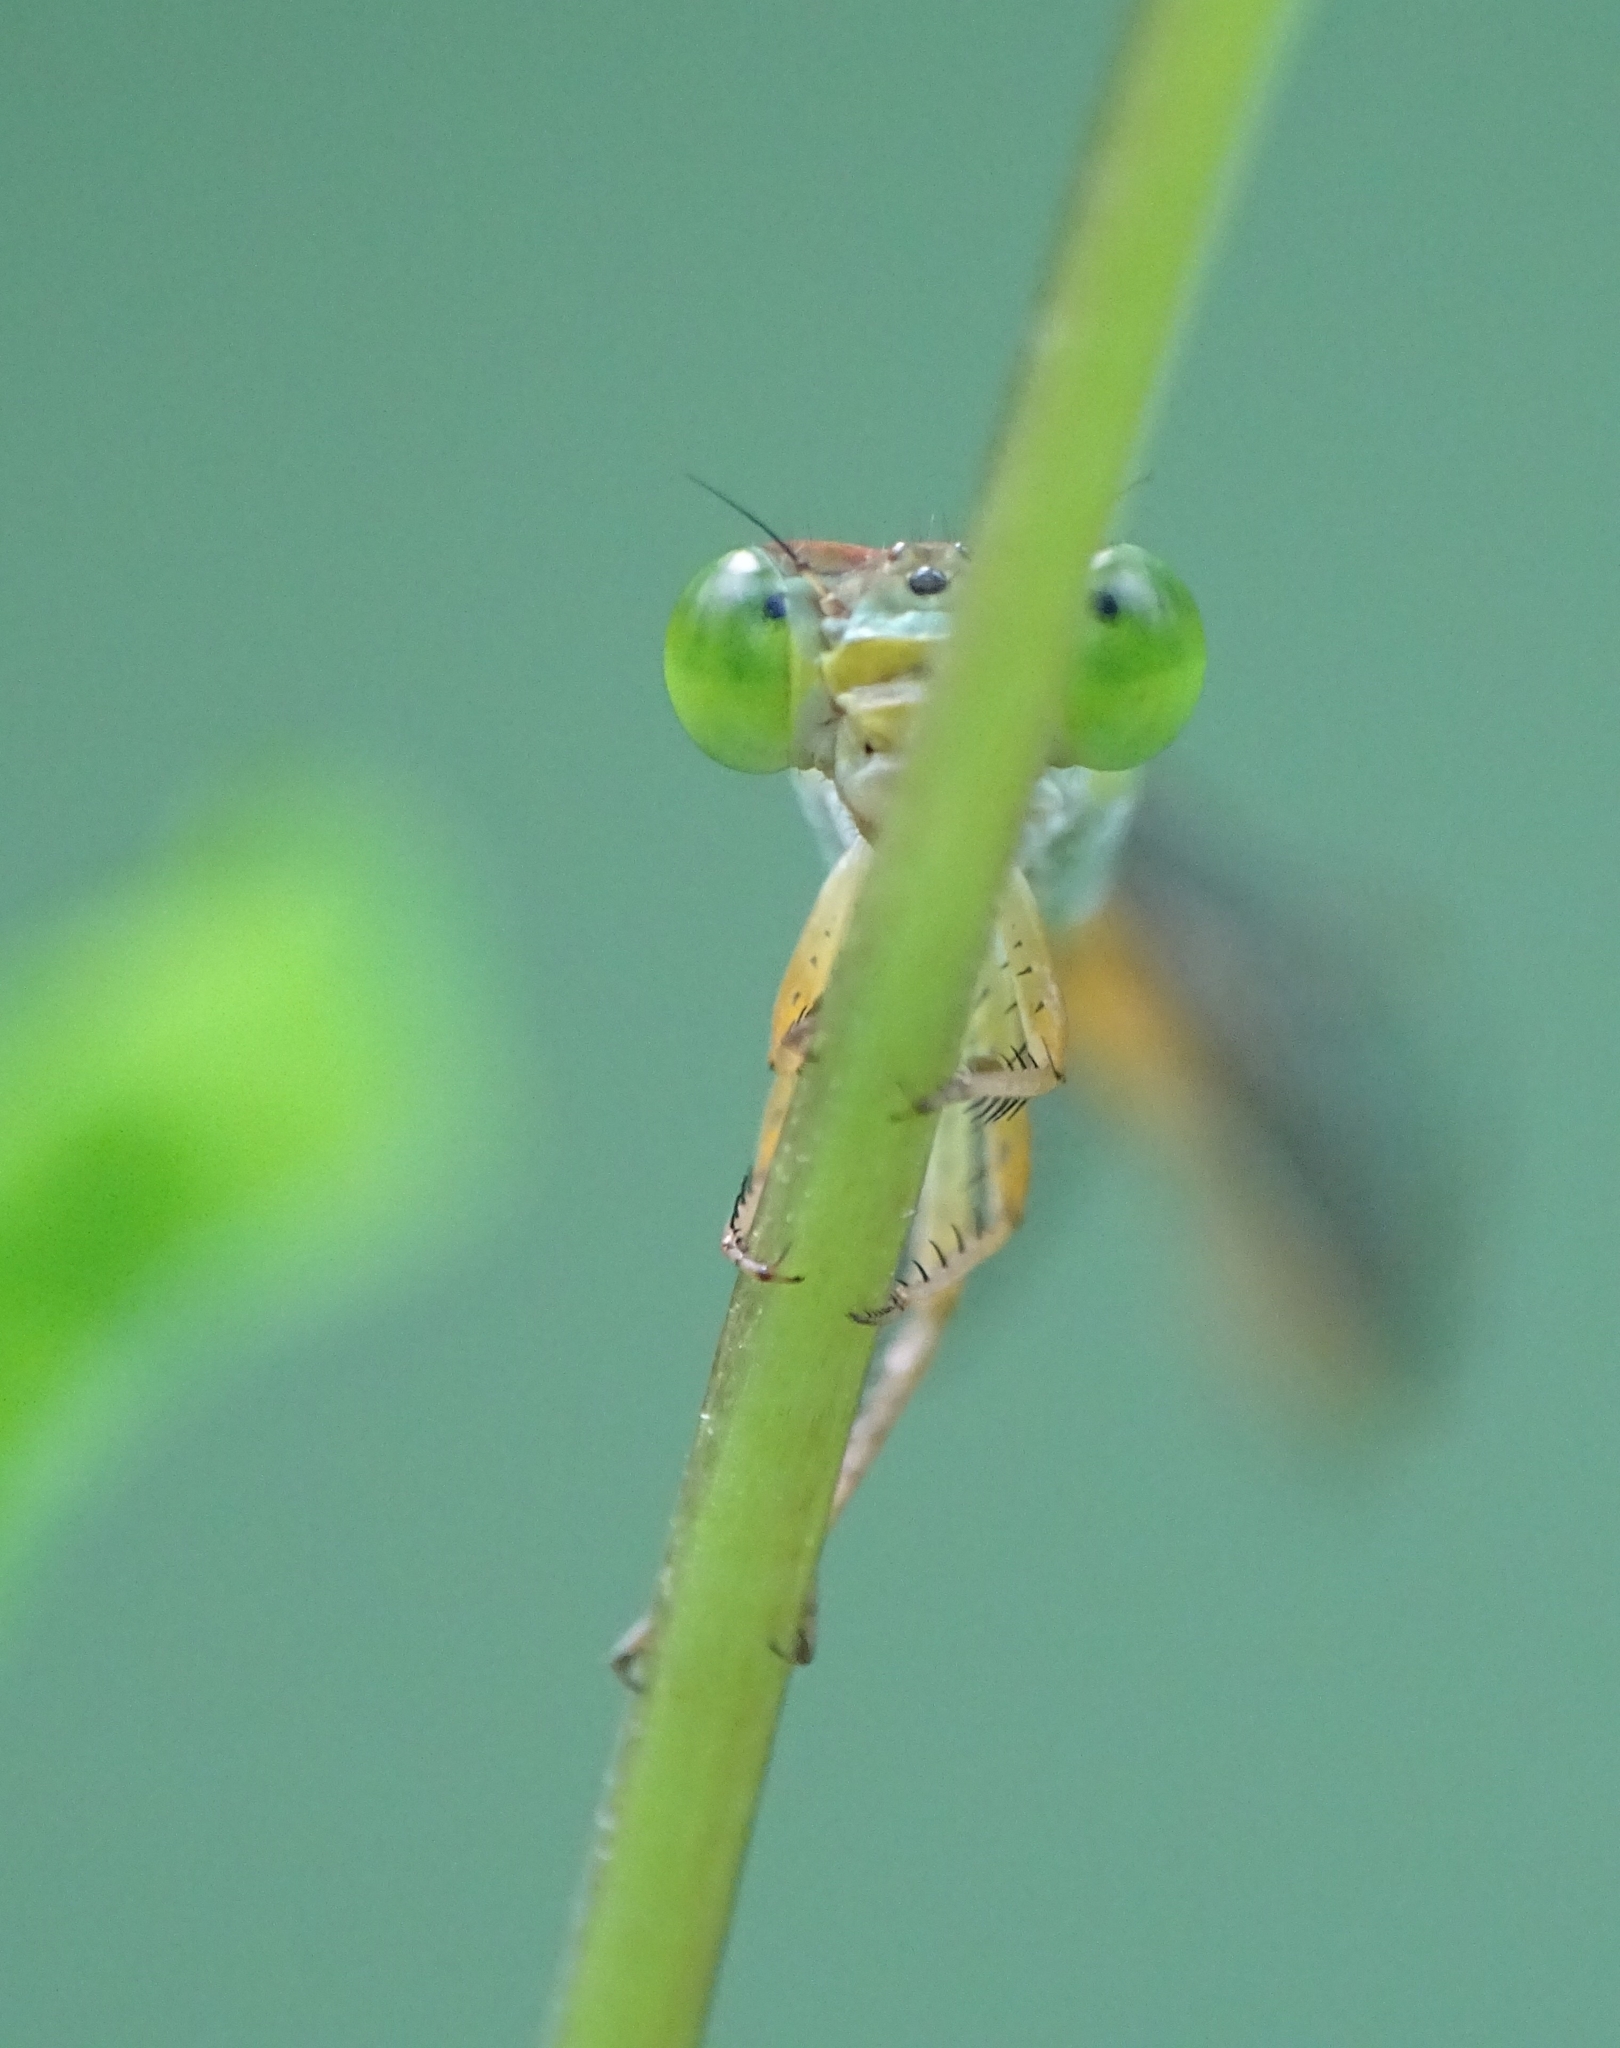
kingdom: Animalia
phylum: Arthropoda
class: Insecta
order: Odonata
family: Coenagrionidae
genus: Ceriagrion
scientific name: Ceriagrion coromandelianum
